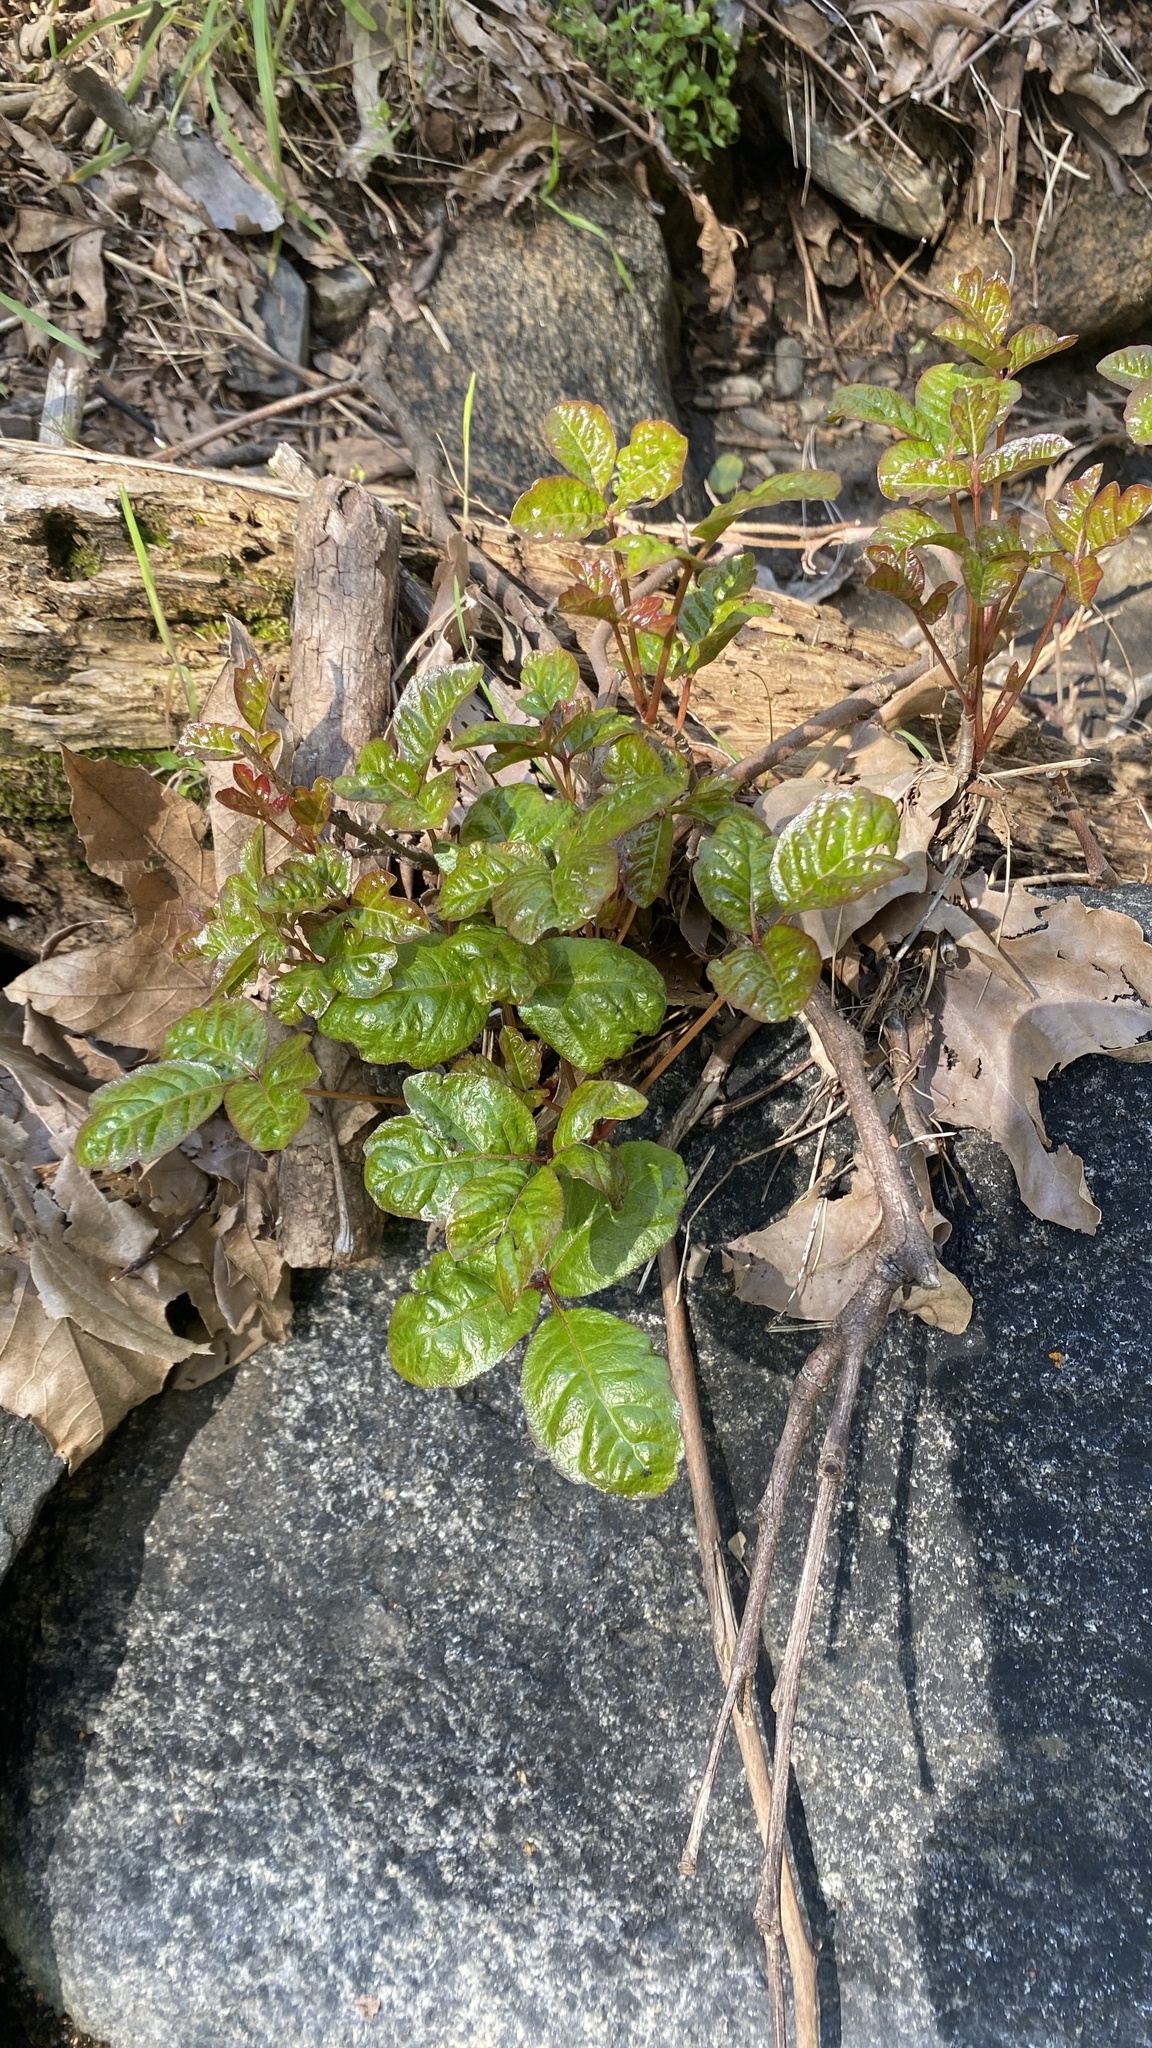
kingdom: Plantae
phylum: Tracheophyta
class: Magnoliopsida
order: Sapindales
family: Anacardiaceae
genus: Toxicodendron
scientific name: Toxicodendron diversilobum
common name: Pacific poison-oak
